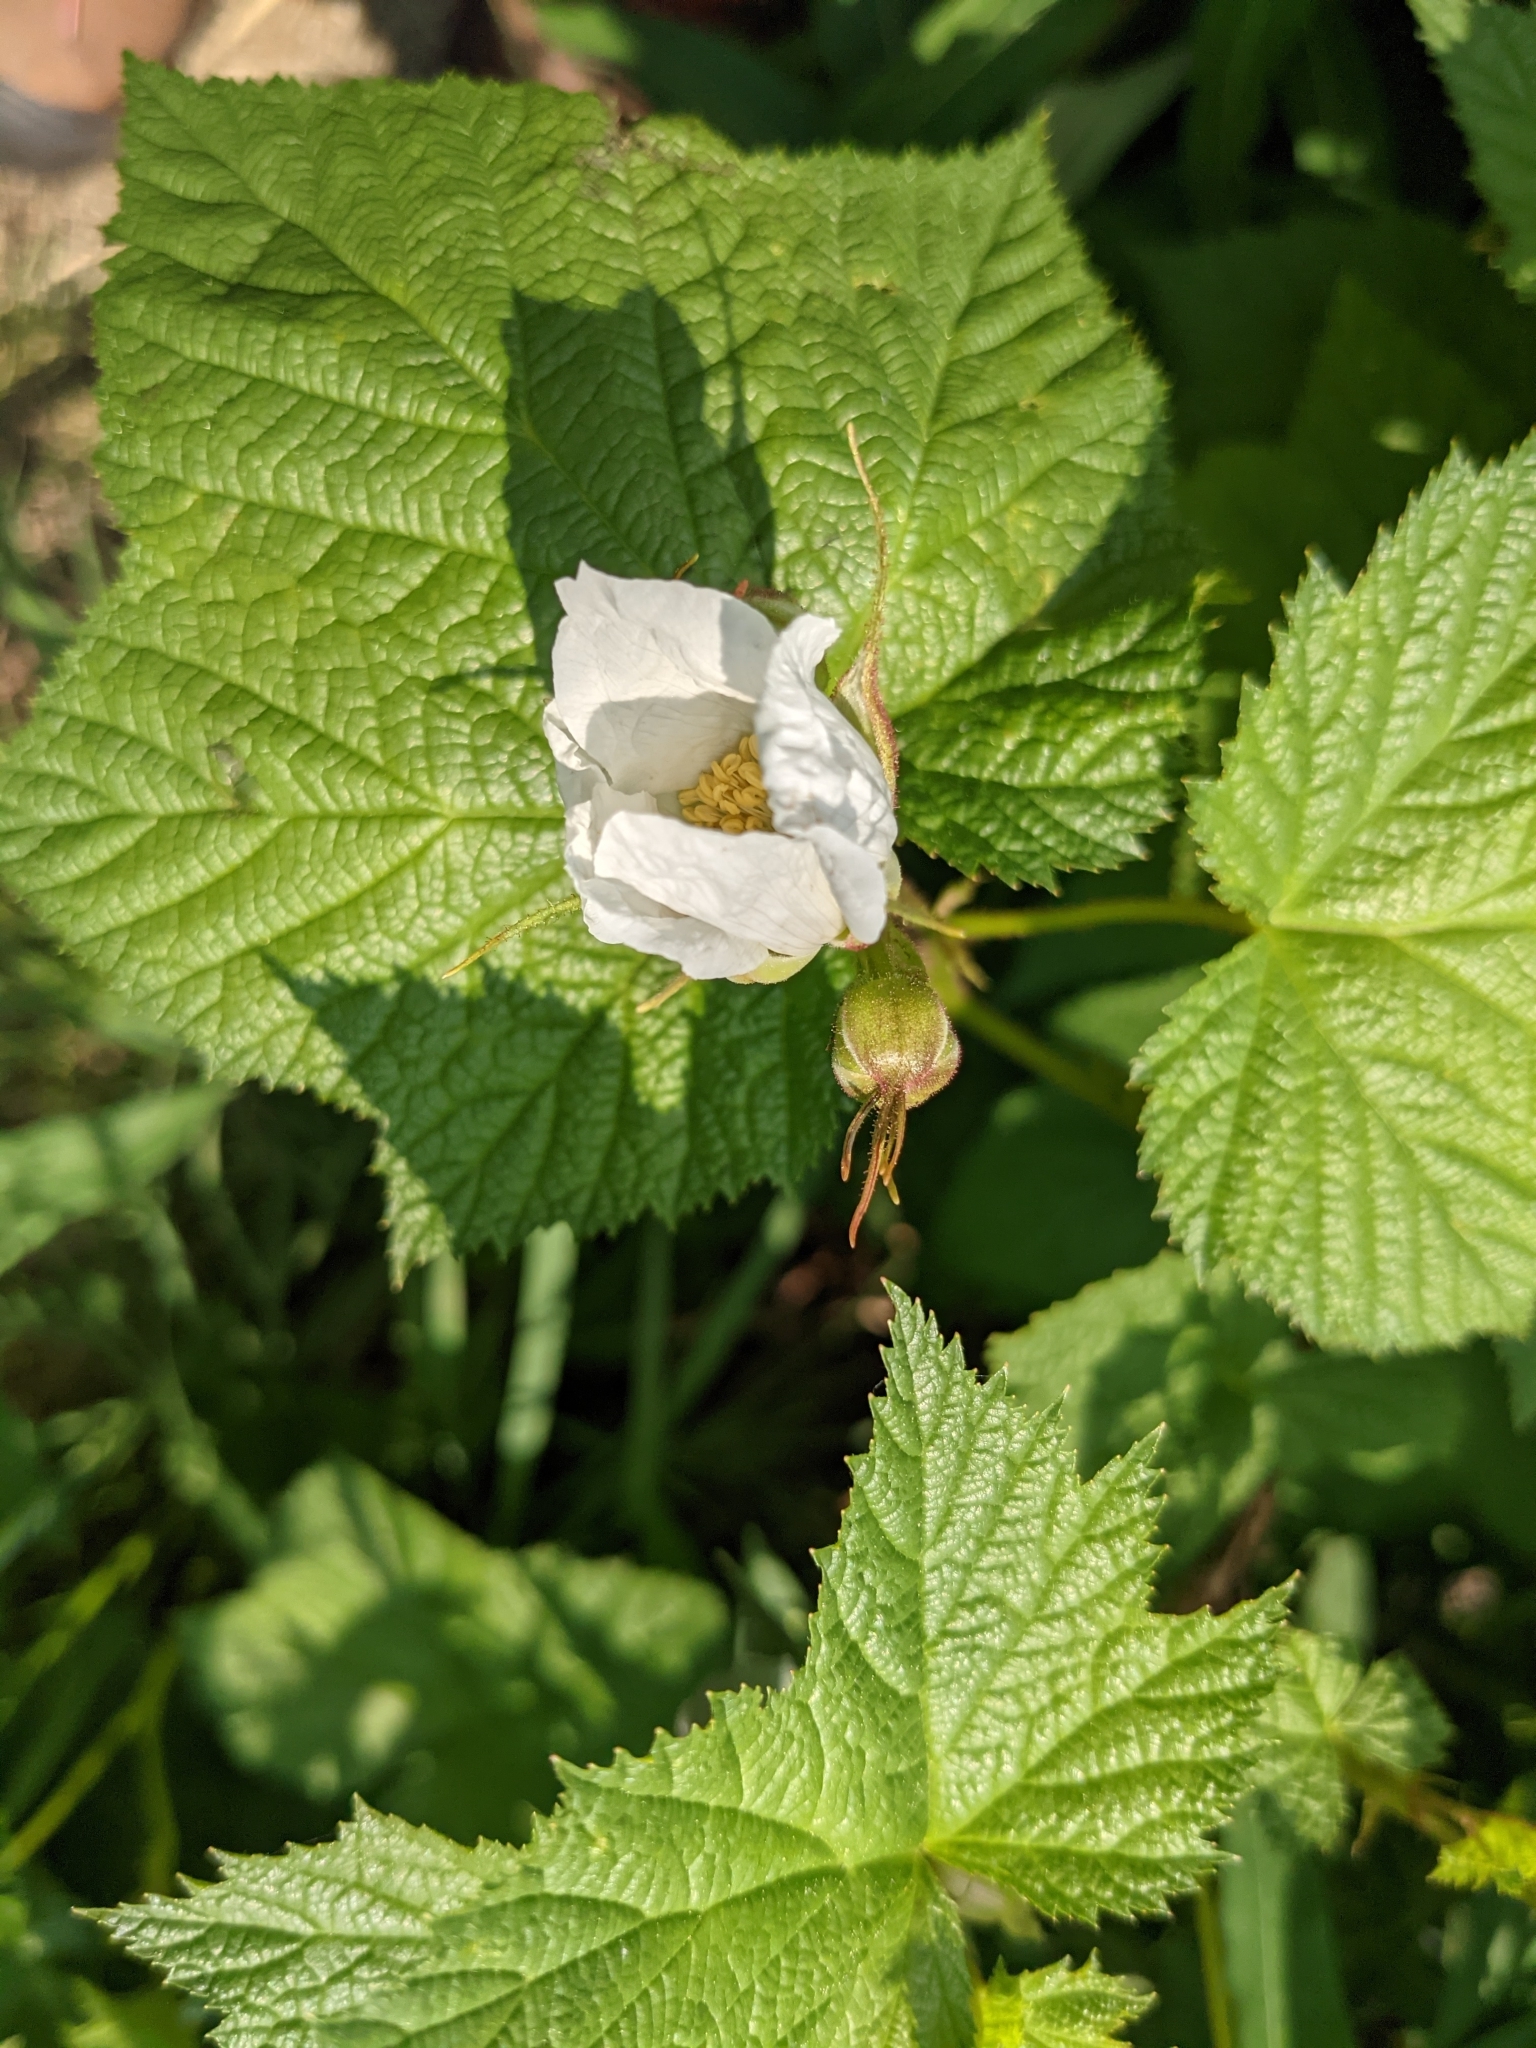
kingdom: Plantae
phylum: Tracheophyta
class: Magnoliopsida
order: Rosales
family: Rosaceae
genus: Rubus
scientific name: Rubus parviflorus
